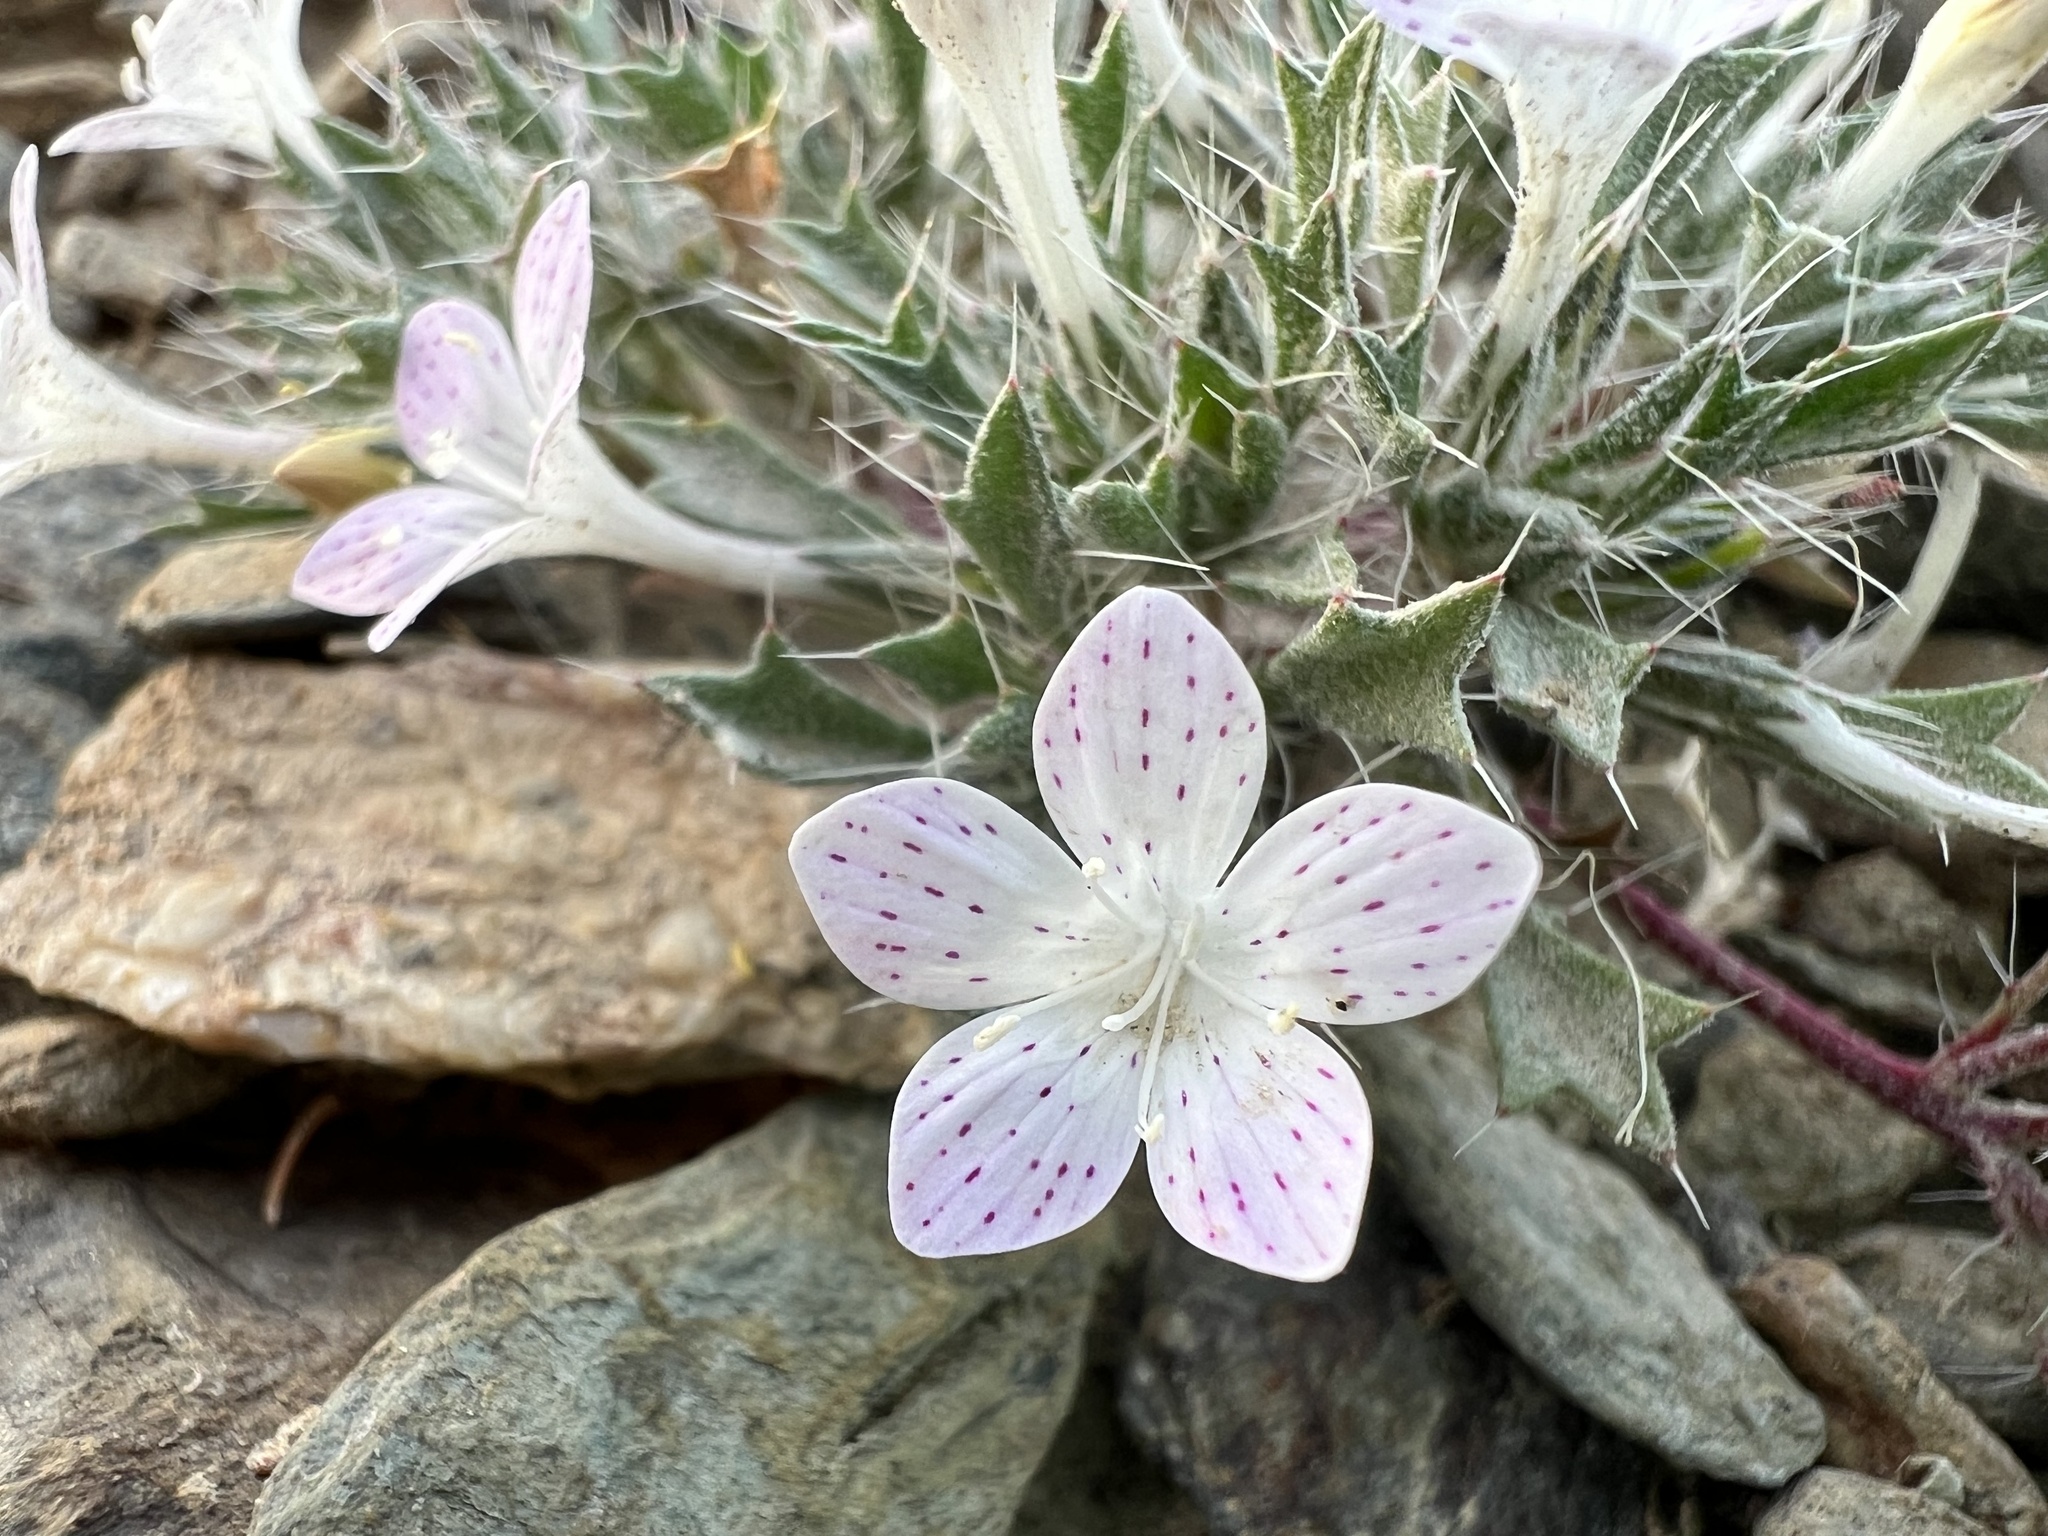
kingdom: Plantae
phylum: Tracheophyta
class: Magnoliopsida
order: Ericales
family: Polemoniaceae
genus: Langloisia
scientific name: Langloisia setosissima
